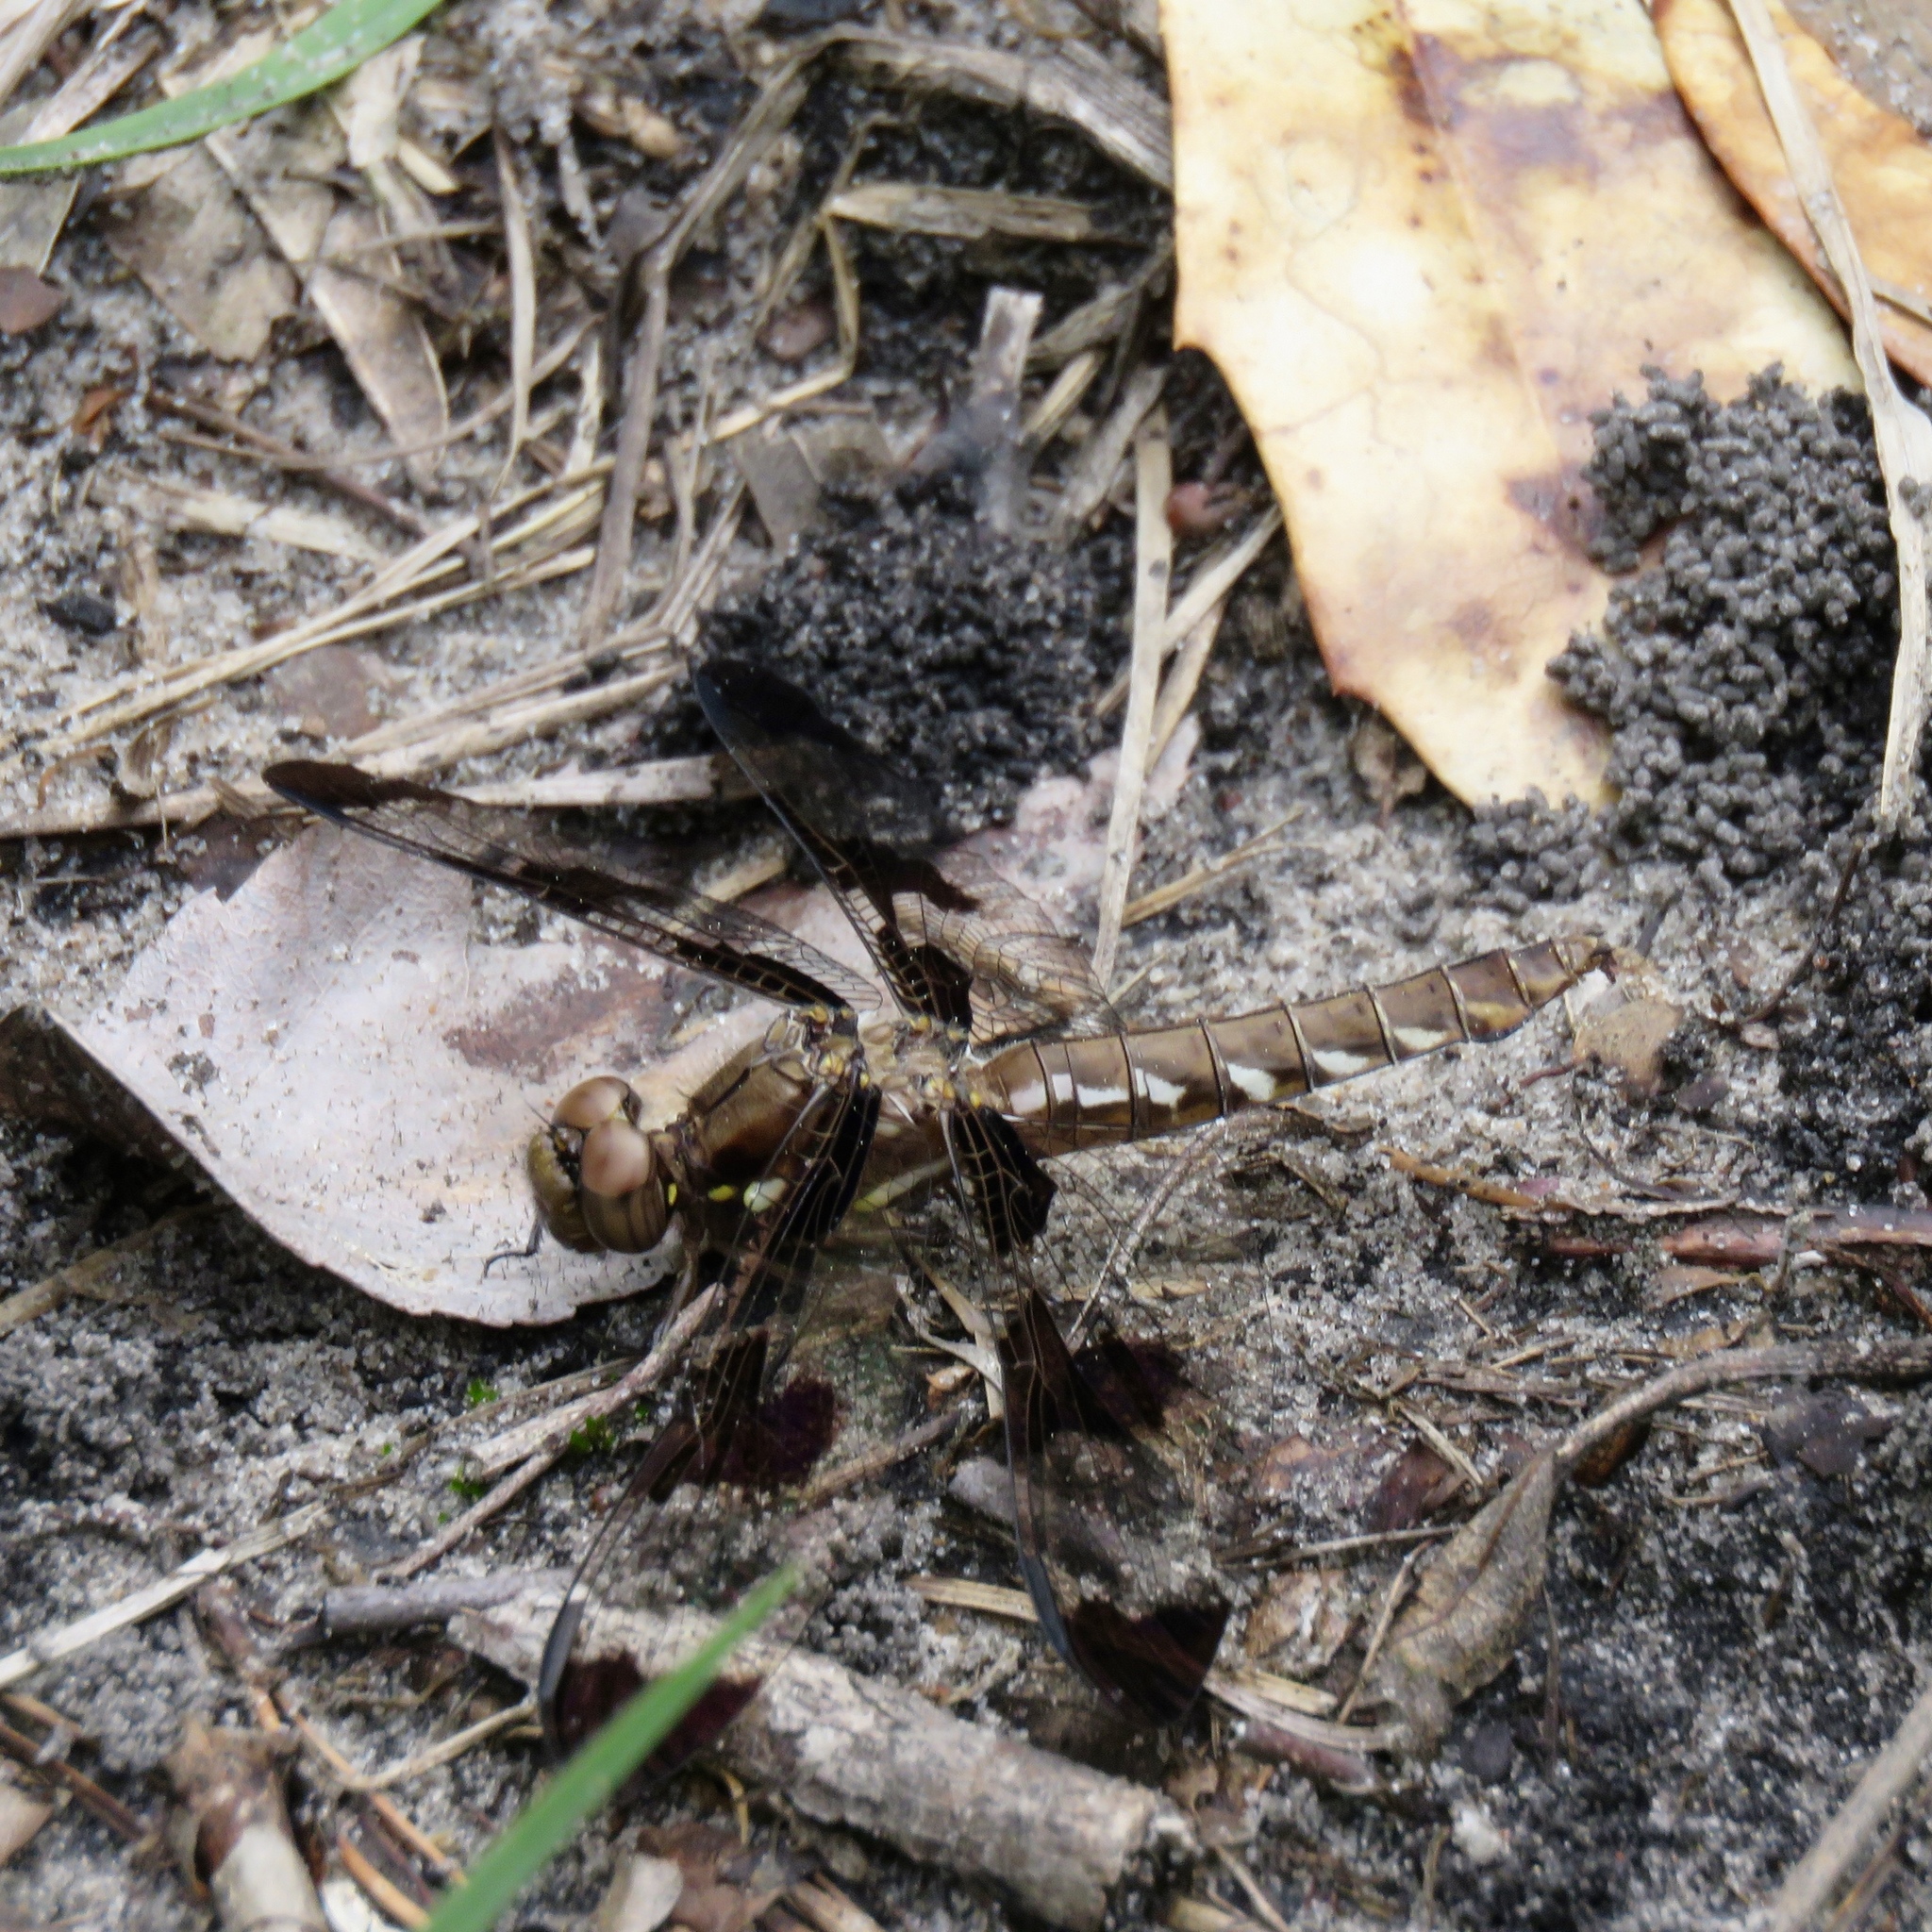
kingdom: Animalia
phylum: Arthropoda
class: Insecta
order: Odonata
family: Libellulidae
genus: Plathemis
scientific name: Plathemis lydia
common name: Common whitetail
